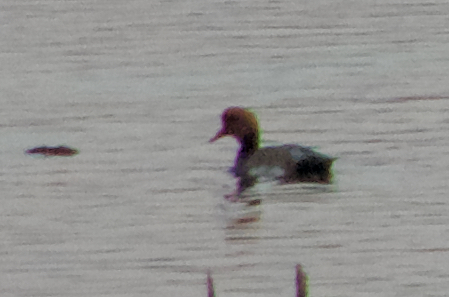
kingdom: Animalia
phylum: Chordata
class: Aves
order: Anseriformes
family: Anatidae
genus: Netta
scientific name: Netta rufina
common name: Red-crested pochard
